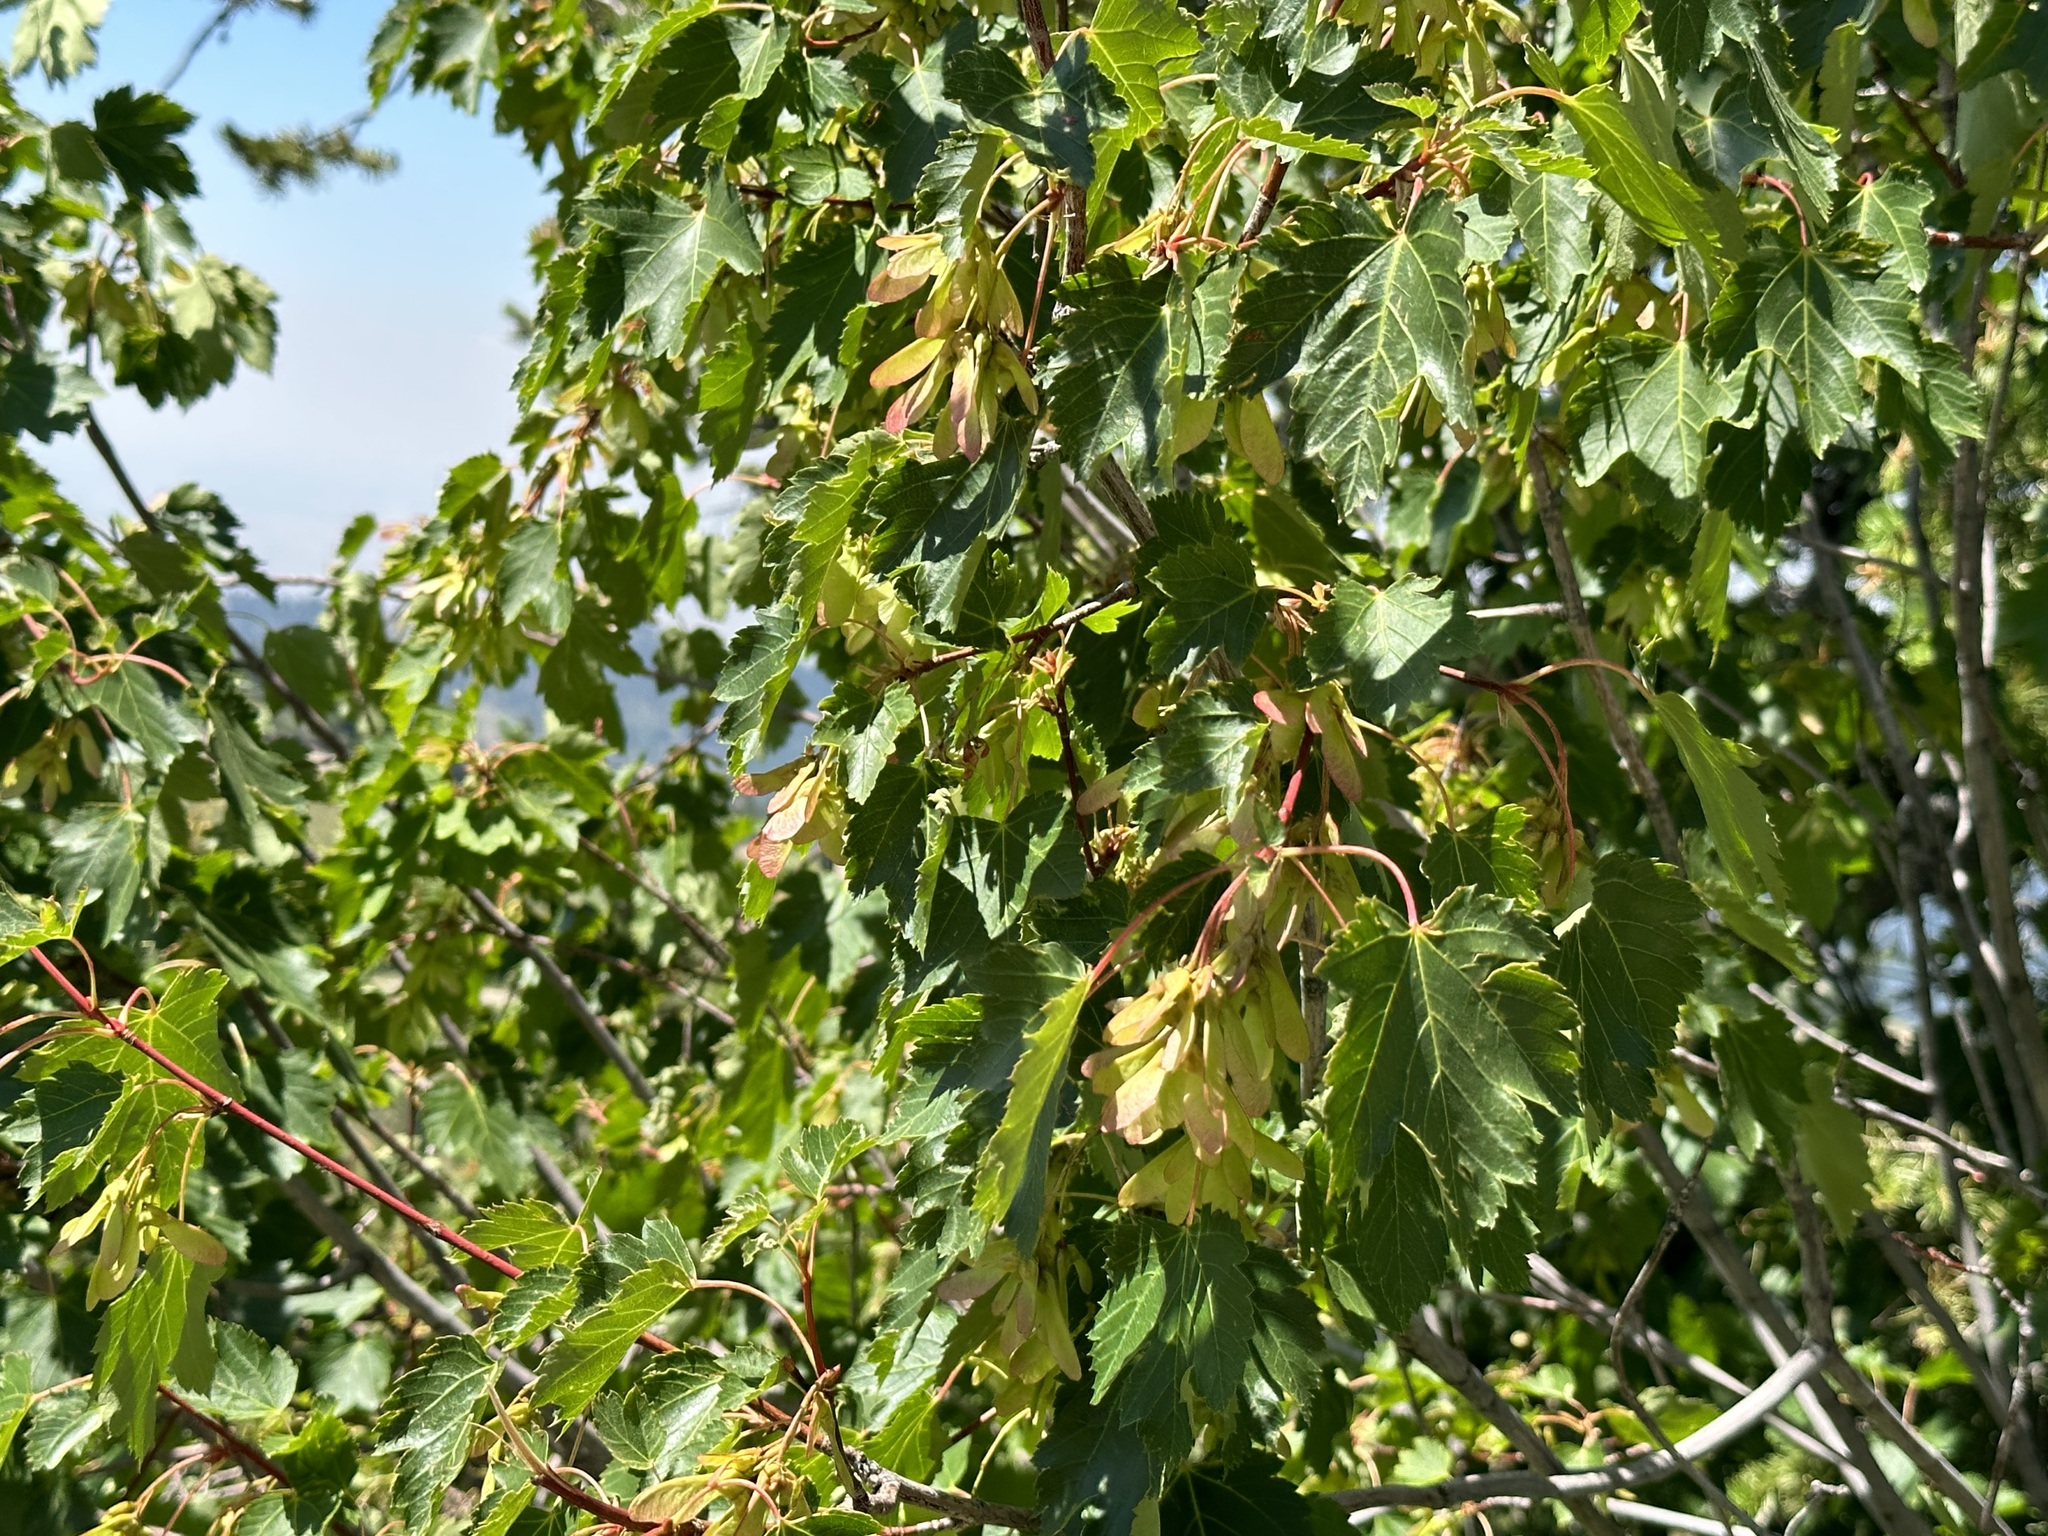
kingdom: Plantae
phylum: Tracheophyta
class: Magnoliopsida
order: Sapindales
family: Sapindaceae
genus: Acer
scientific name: Acer glabrum
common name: Rocky mountain maple
